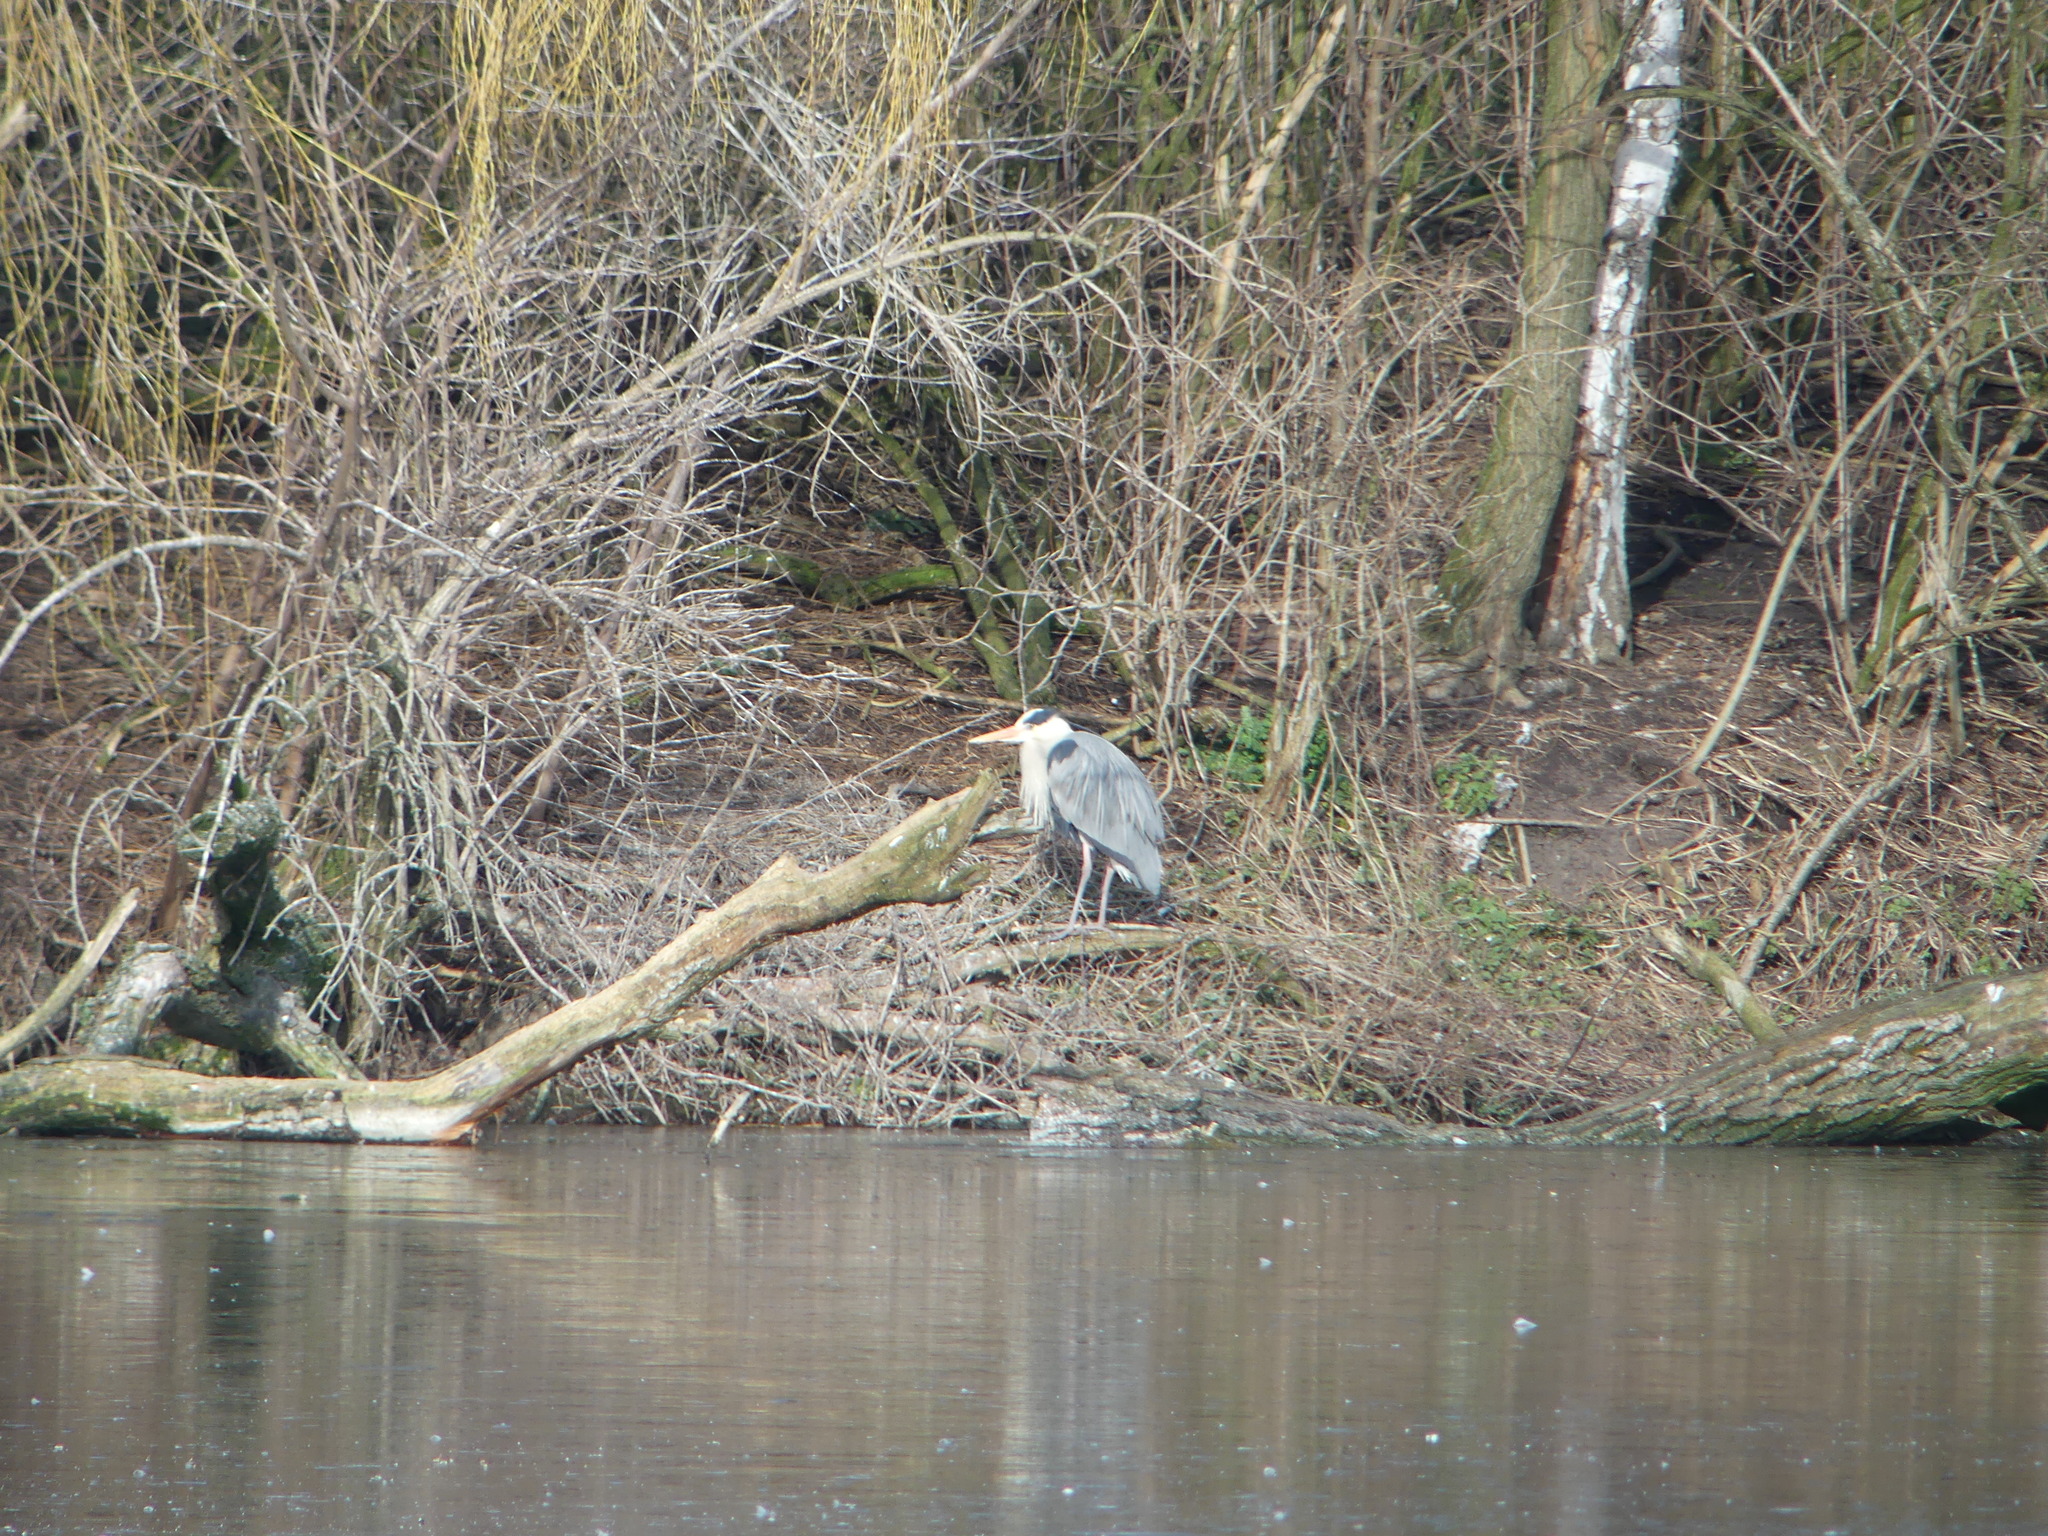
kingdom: Animalia
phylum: Chordata
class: Aves
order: Pelecaniformes
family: Ardeidae
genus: Ardea
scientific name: Ardea cinerea
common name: Grey heron
